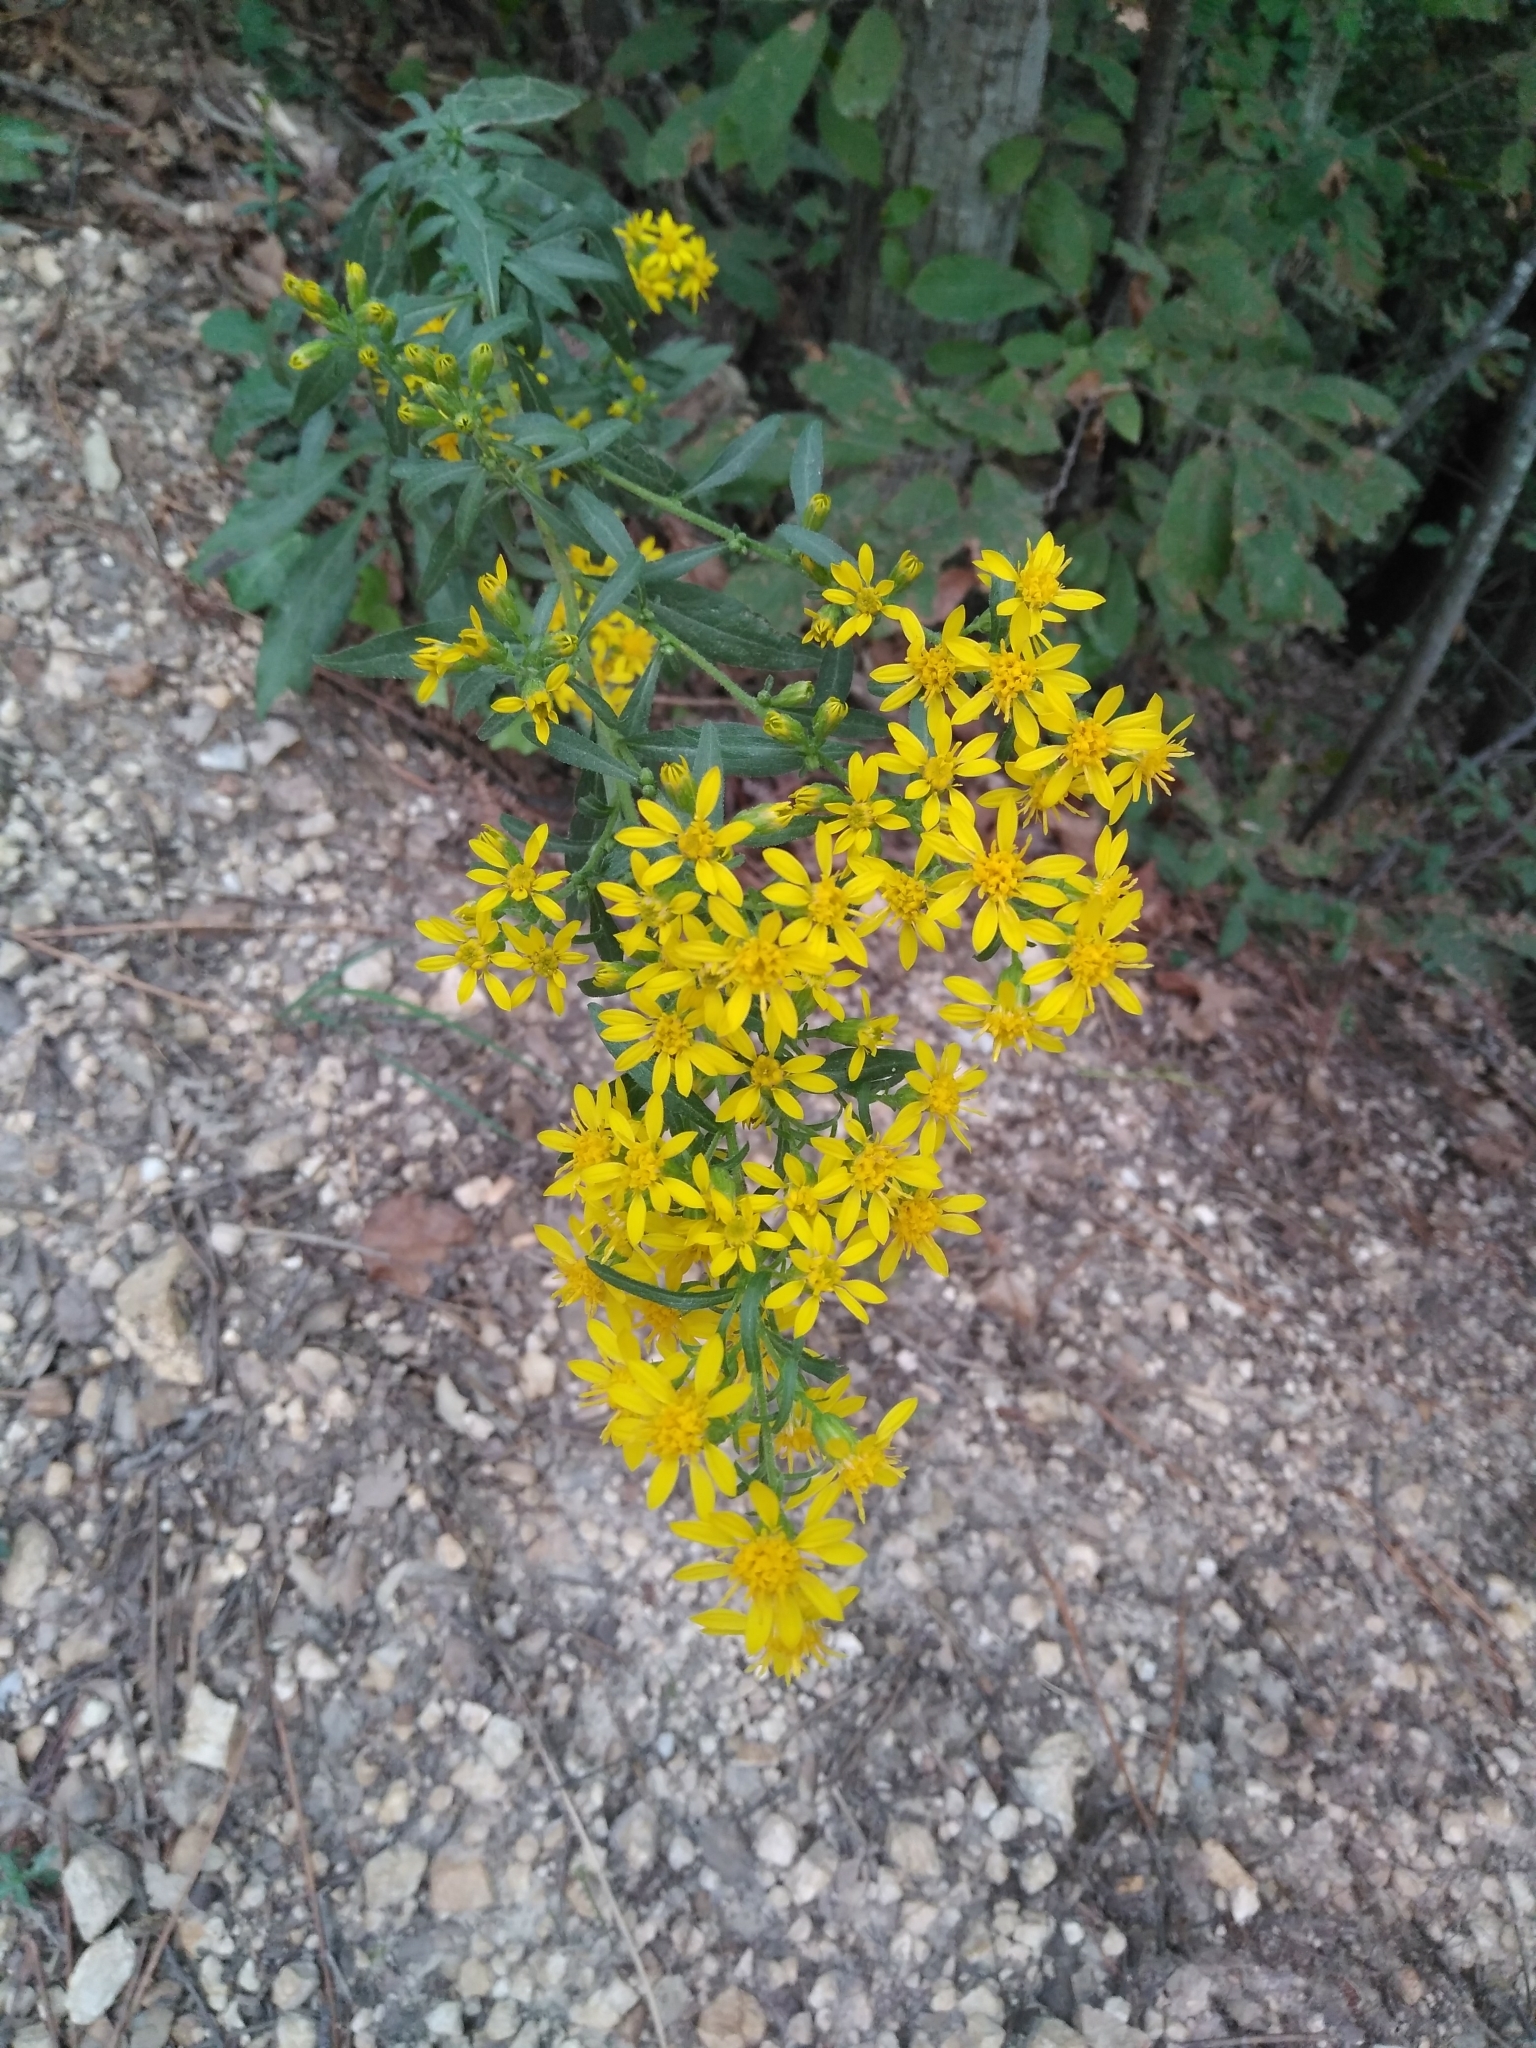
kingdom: Plantae
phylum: Tracheophyta
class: Magnoliopsida
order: Asterales
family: Asteraceae
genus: Solidago
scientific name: Solidago virgaurea
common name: Goldenrod
